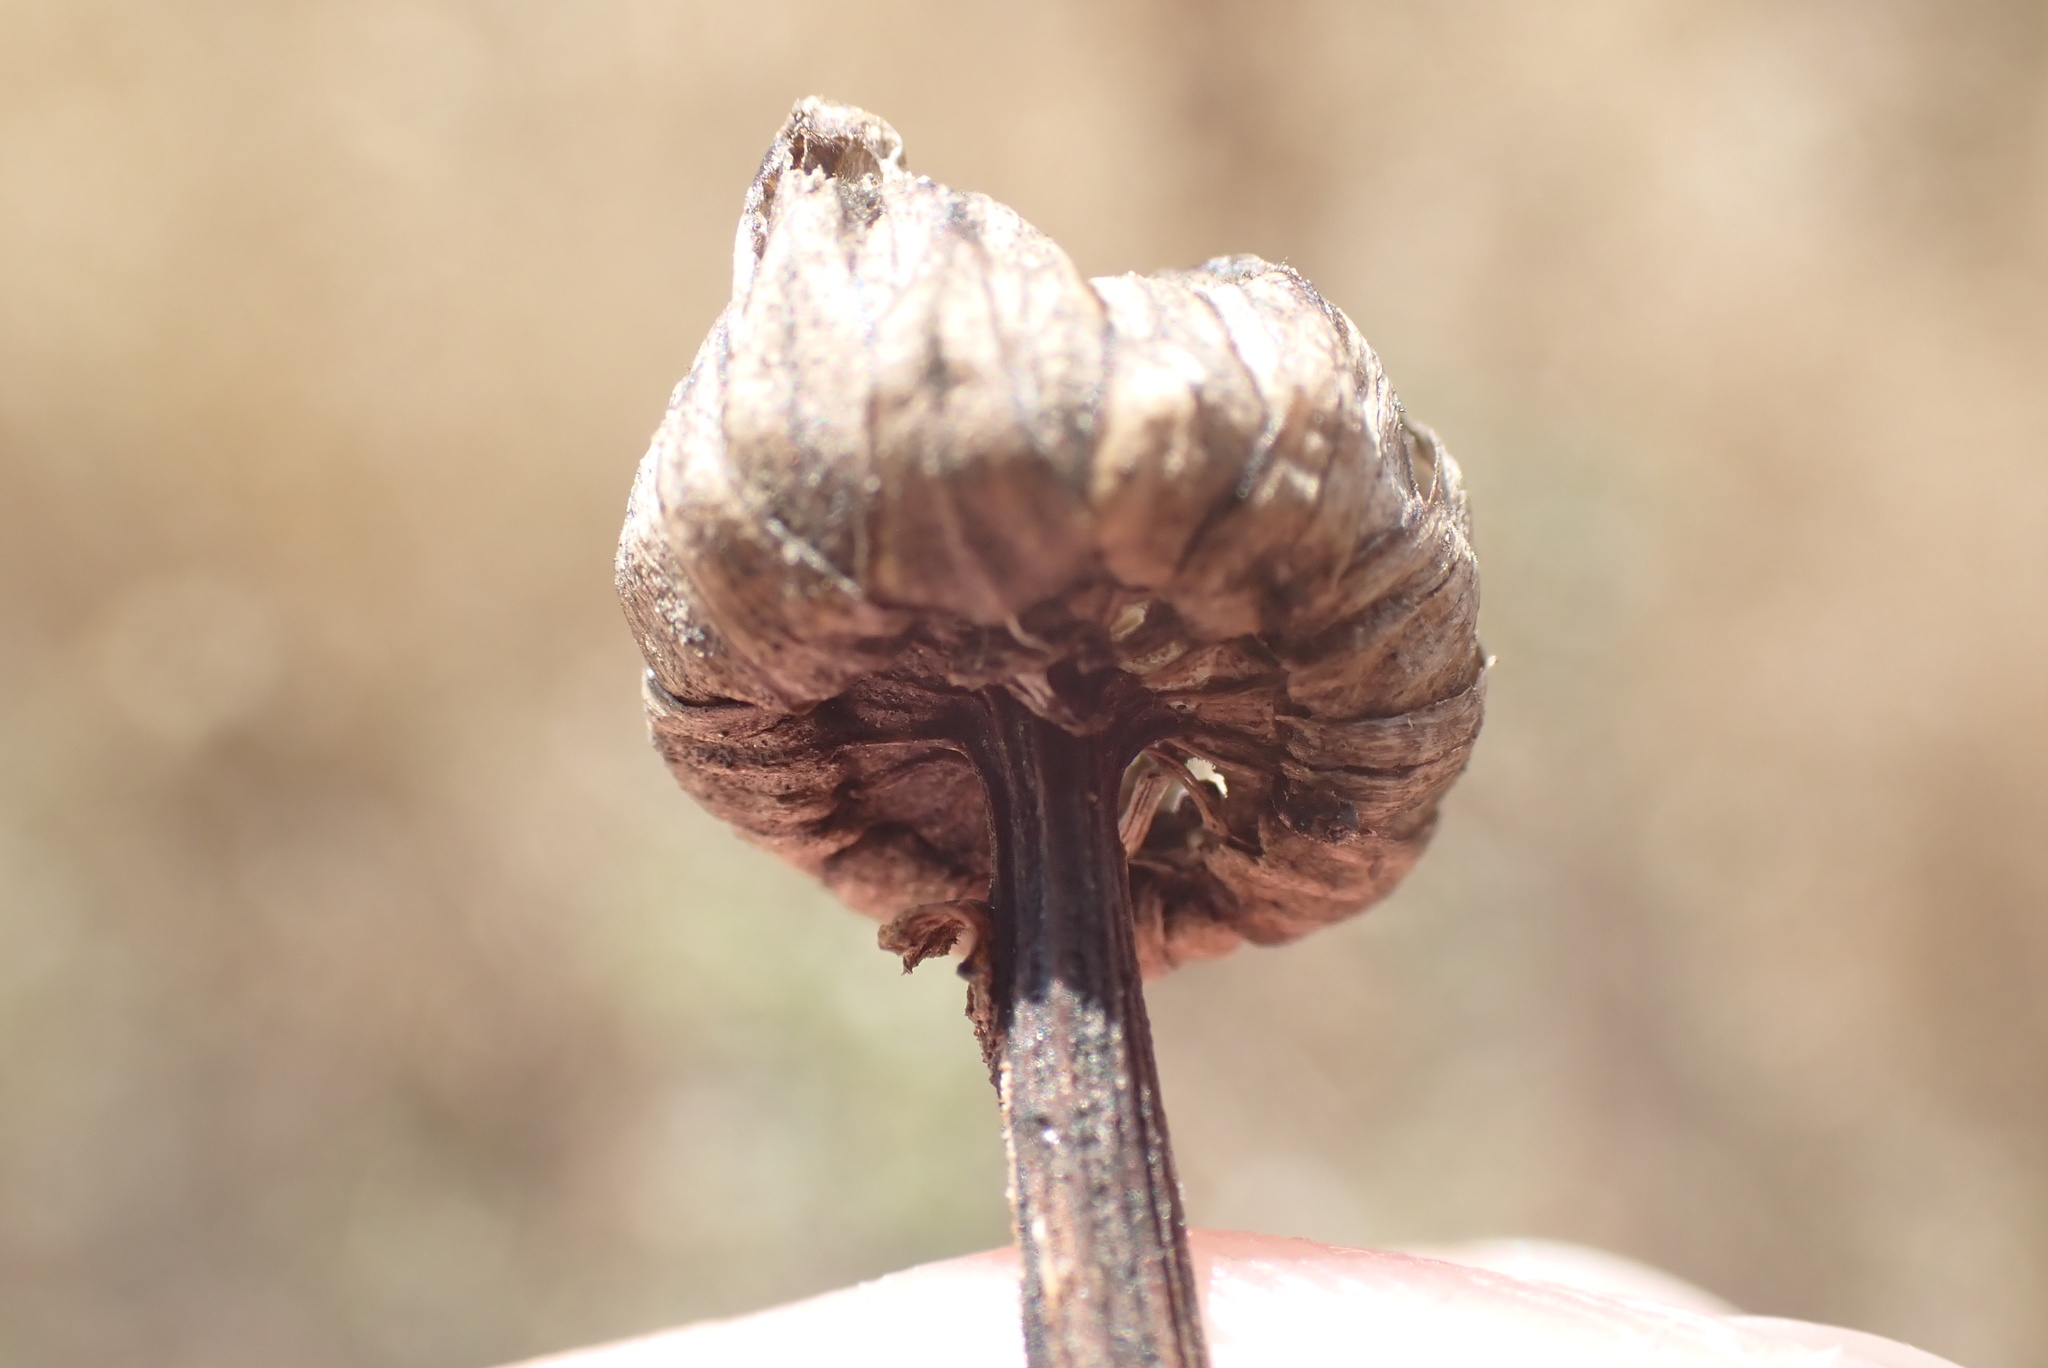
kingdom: Plantae
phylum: Tracheophyta
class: Magnoliopsida
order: Asterales
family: Asteraceae
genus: Leucanthemum
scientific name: Leucanthemum vulgare
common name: Oxeye daisy
